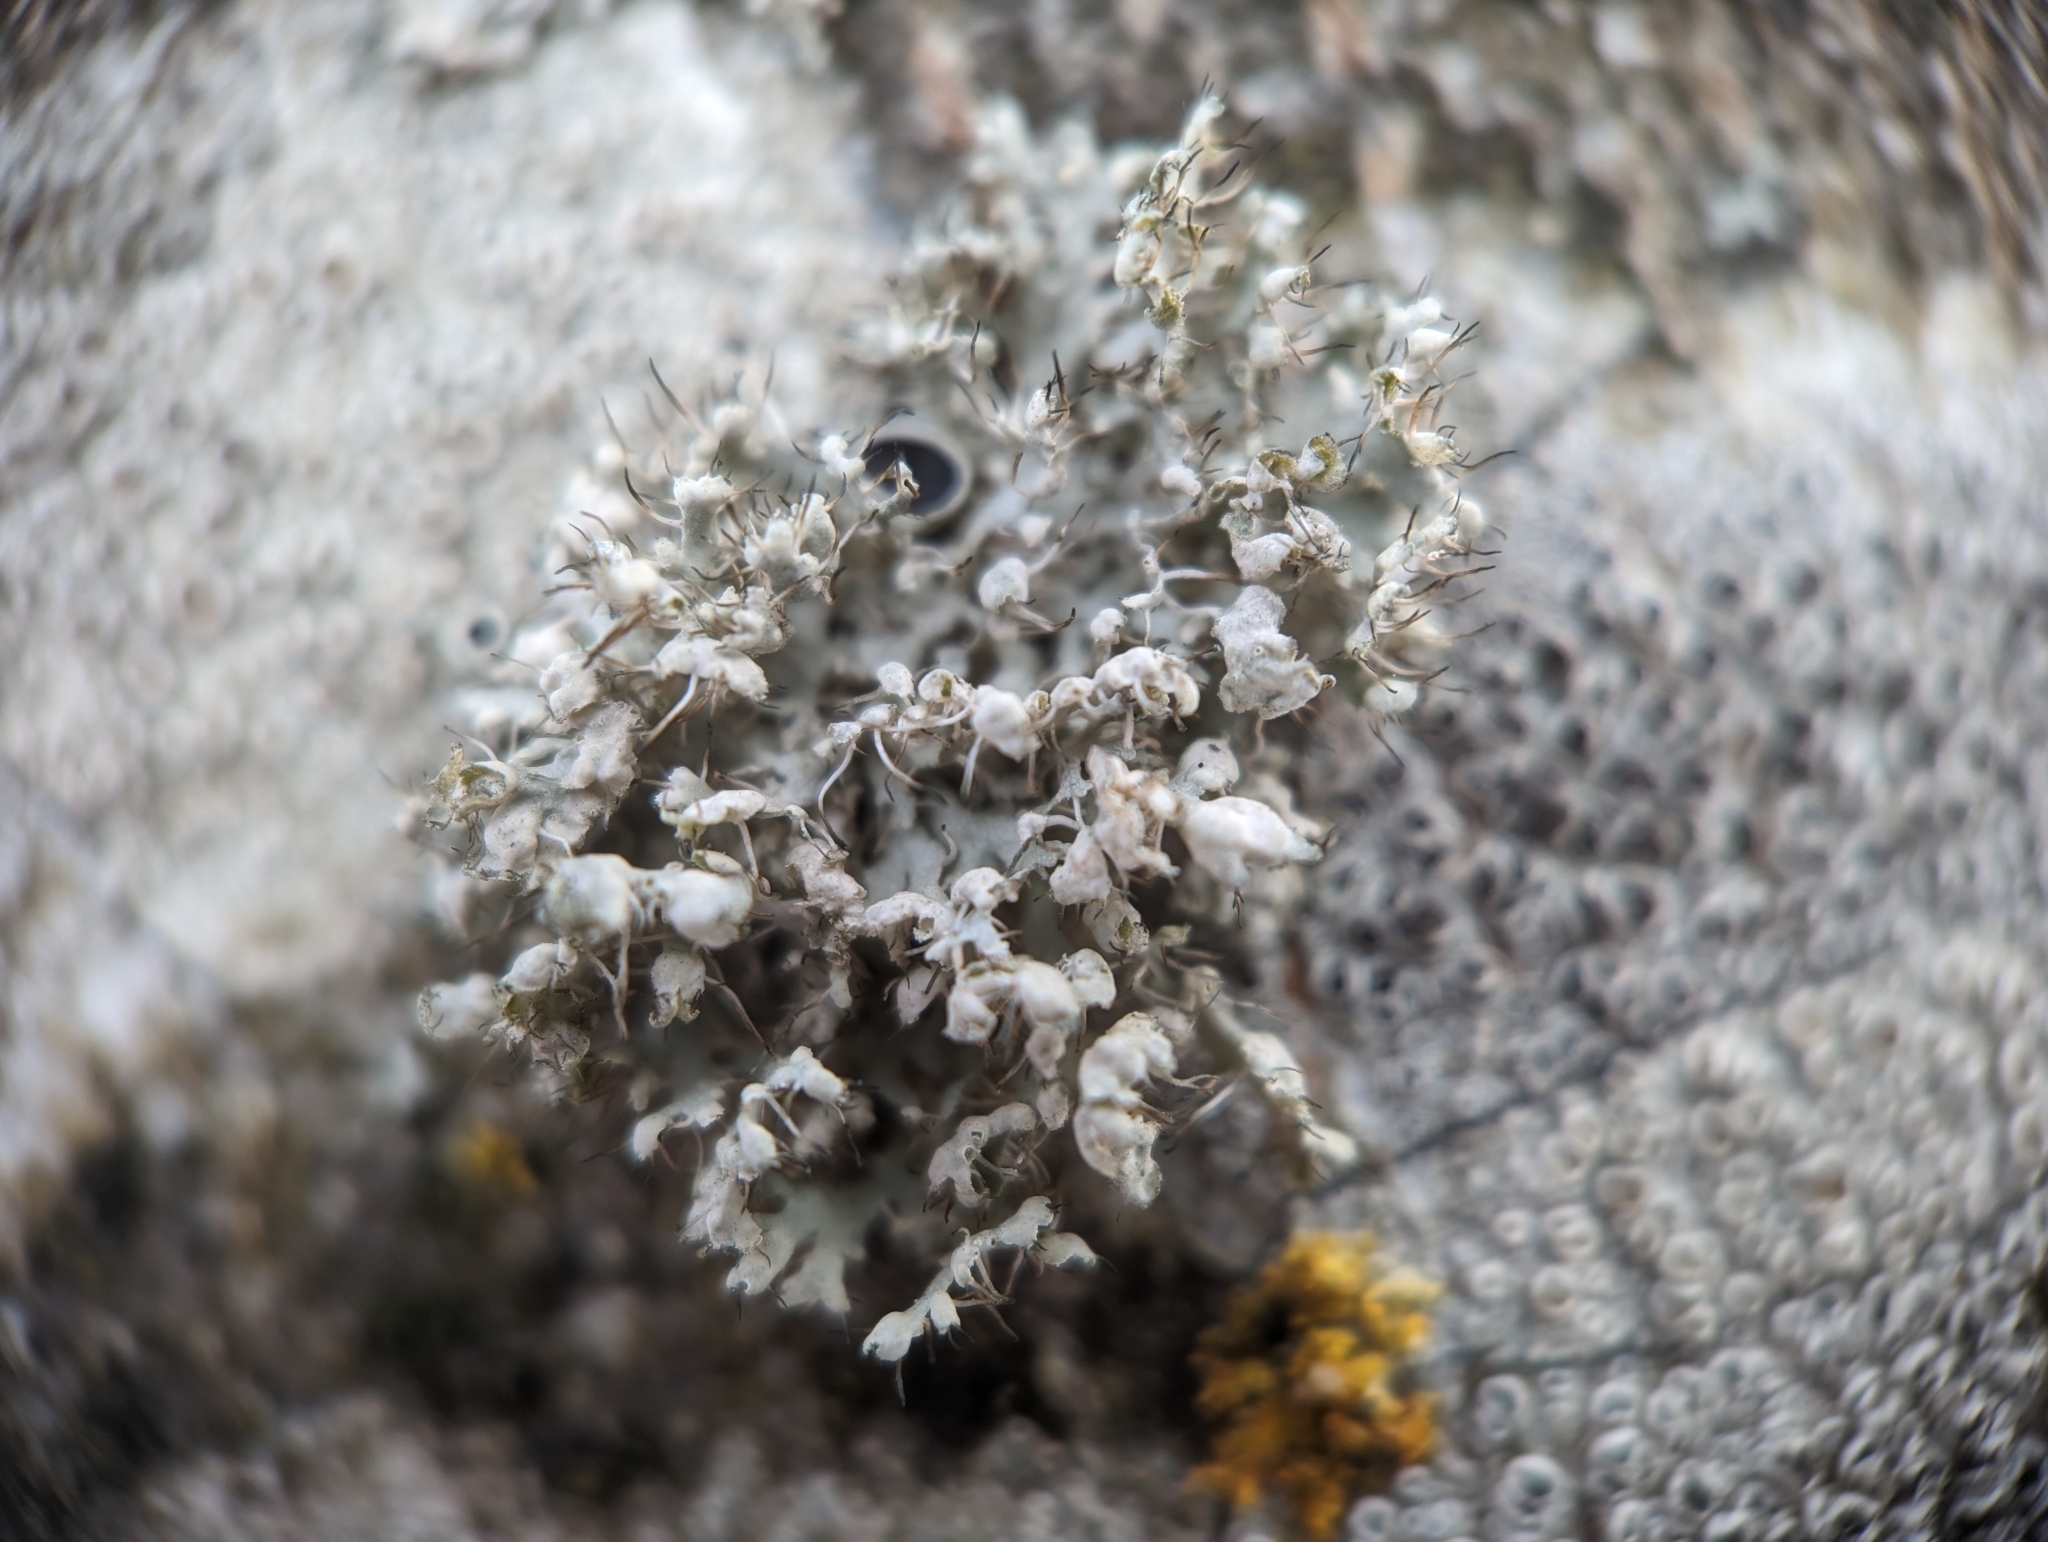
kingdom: Fungi
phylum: Ascomycota
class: Lecanoromycetes
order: Caliciales
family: Physciaceae
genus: Physcia
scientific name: Physcia adscendens
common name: Hooded rosette lichen
